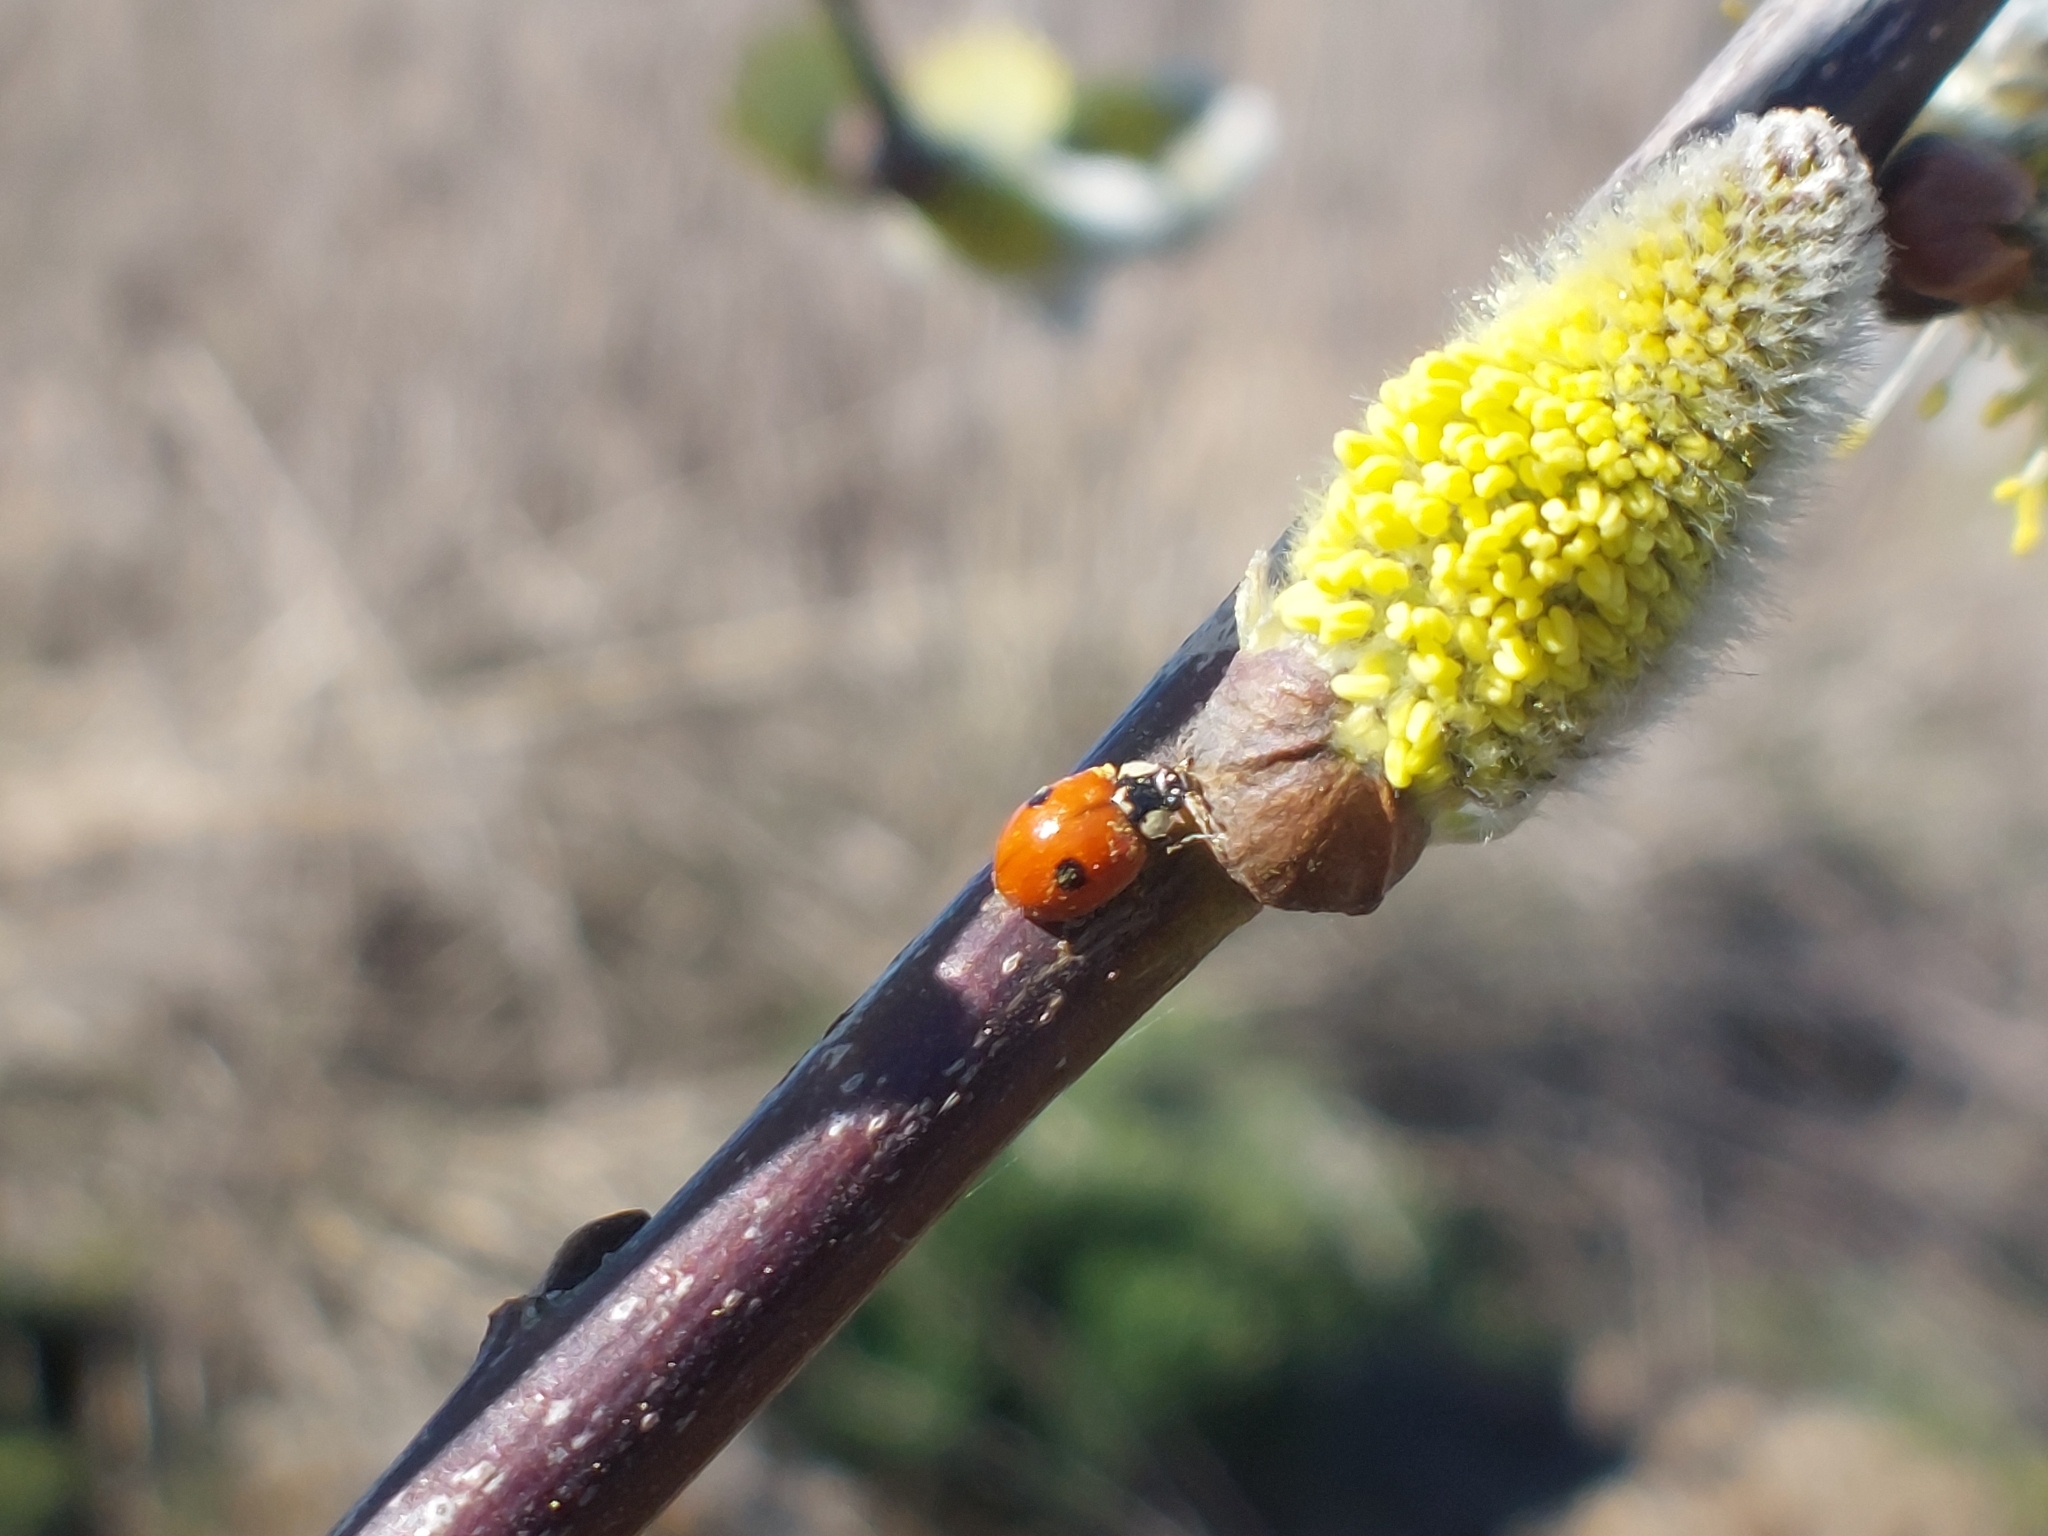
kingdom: Animalia
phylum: Arthropoda
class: Insecta
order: Coleoptera
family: Coccinellidae
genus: Adalia
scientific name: Adalia bipunctata
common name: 2-spot ladybird
